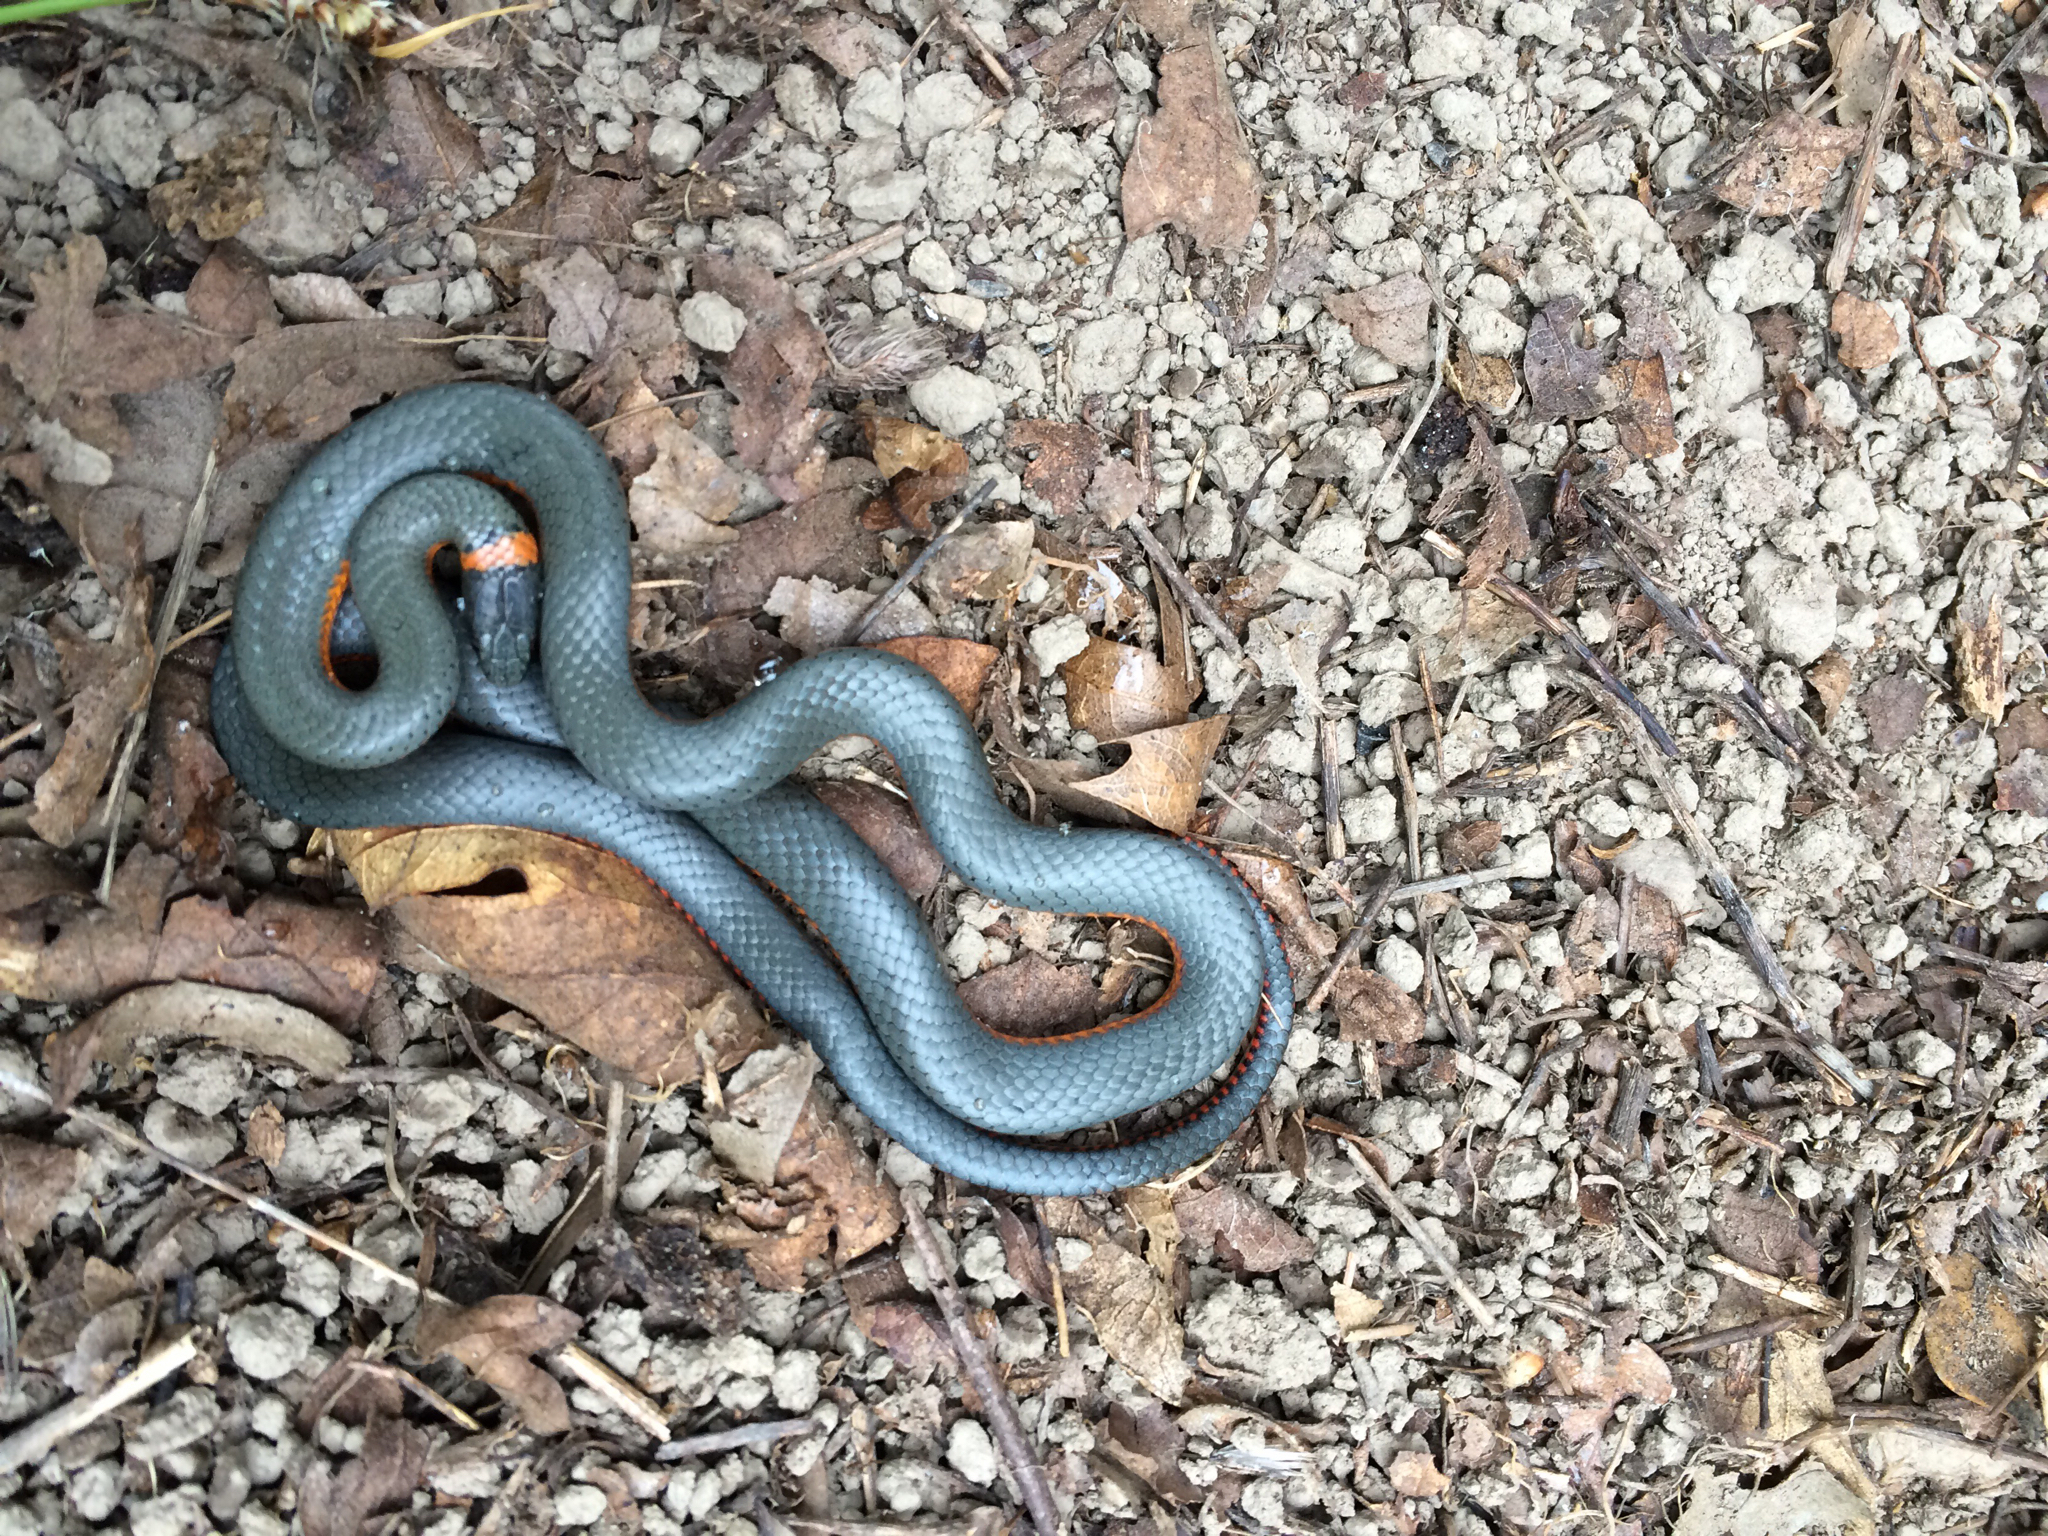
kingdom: Animalia
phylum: Chordata
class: Squamata
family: Colubridae
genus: Diadophis
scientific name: Diadophis punctatus
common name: Ringneck snake
